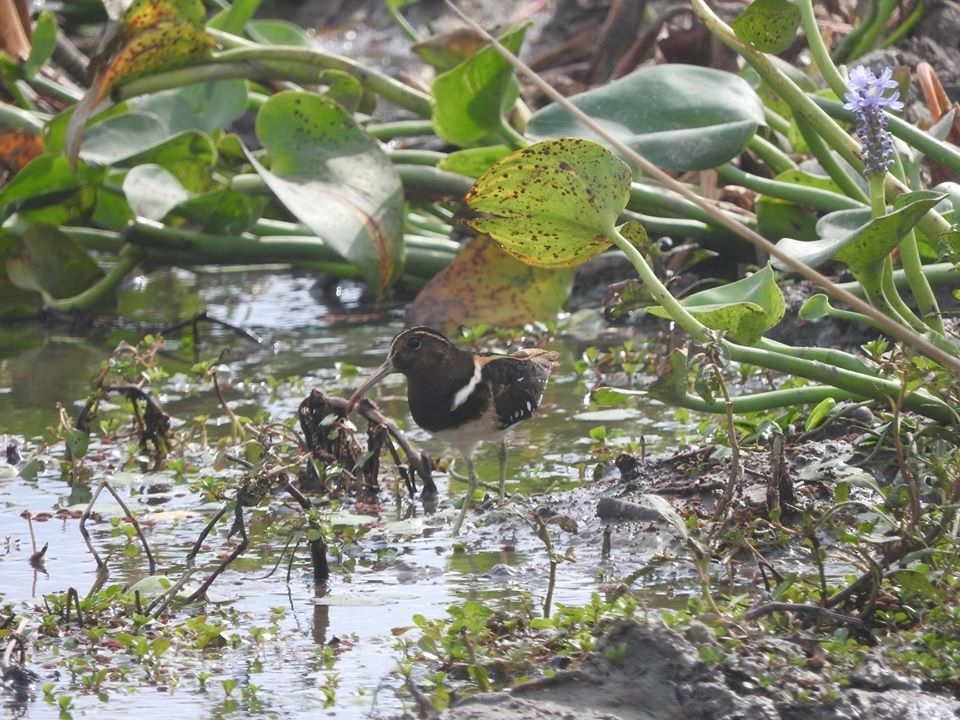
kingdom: Animalia
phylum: Chordata
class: Aves
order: Charadriiformes
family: Rostratulidae
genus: Nycticryphes
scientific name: Nycticryphes semicollaris
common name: South american painted-snipe
